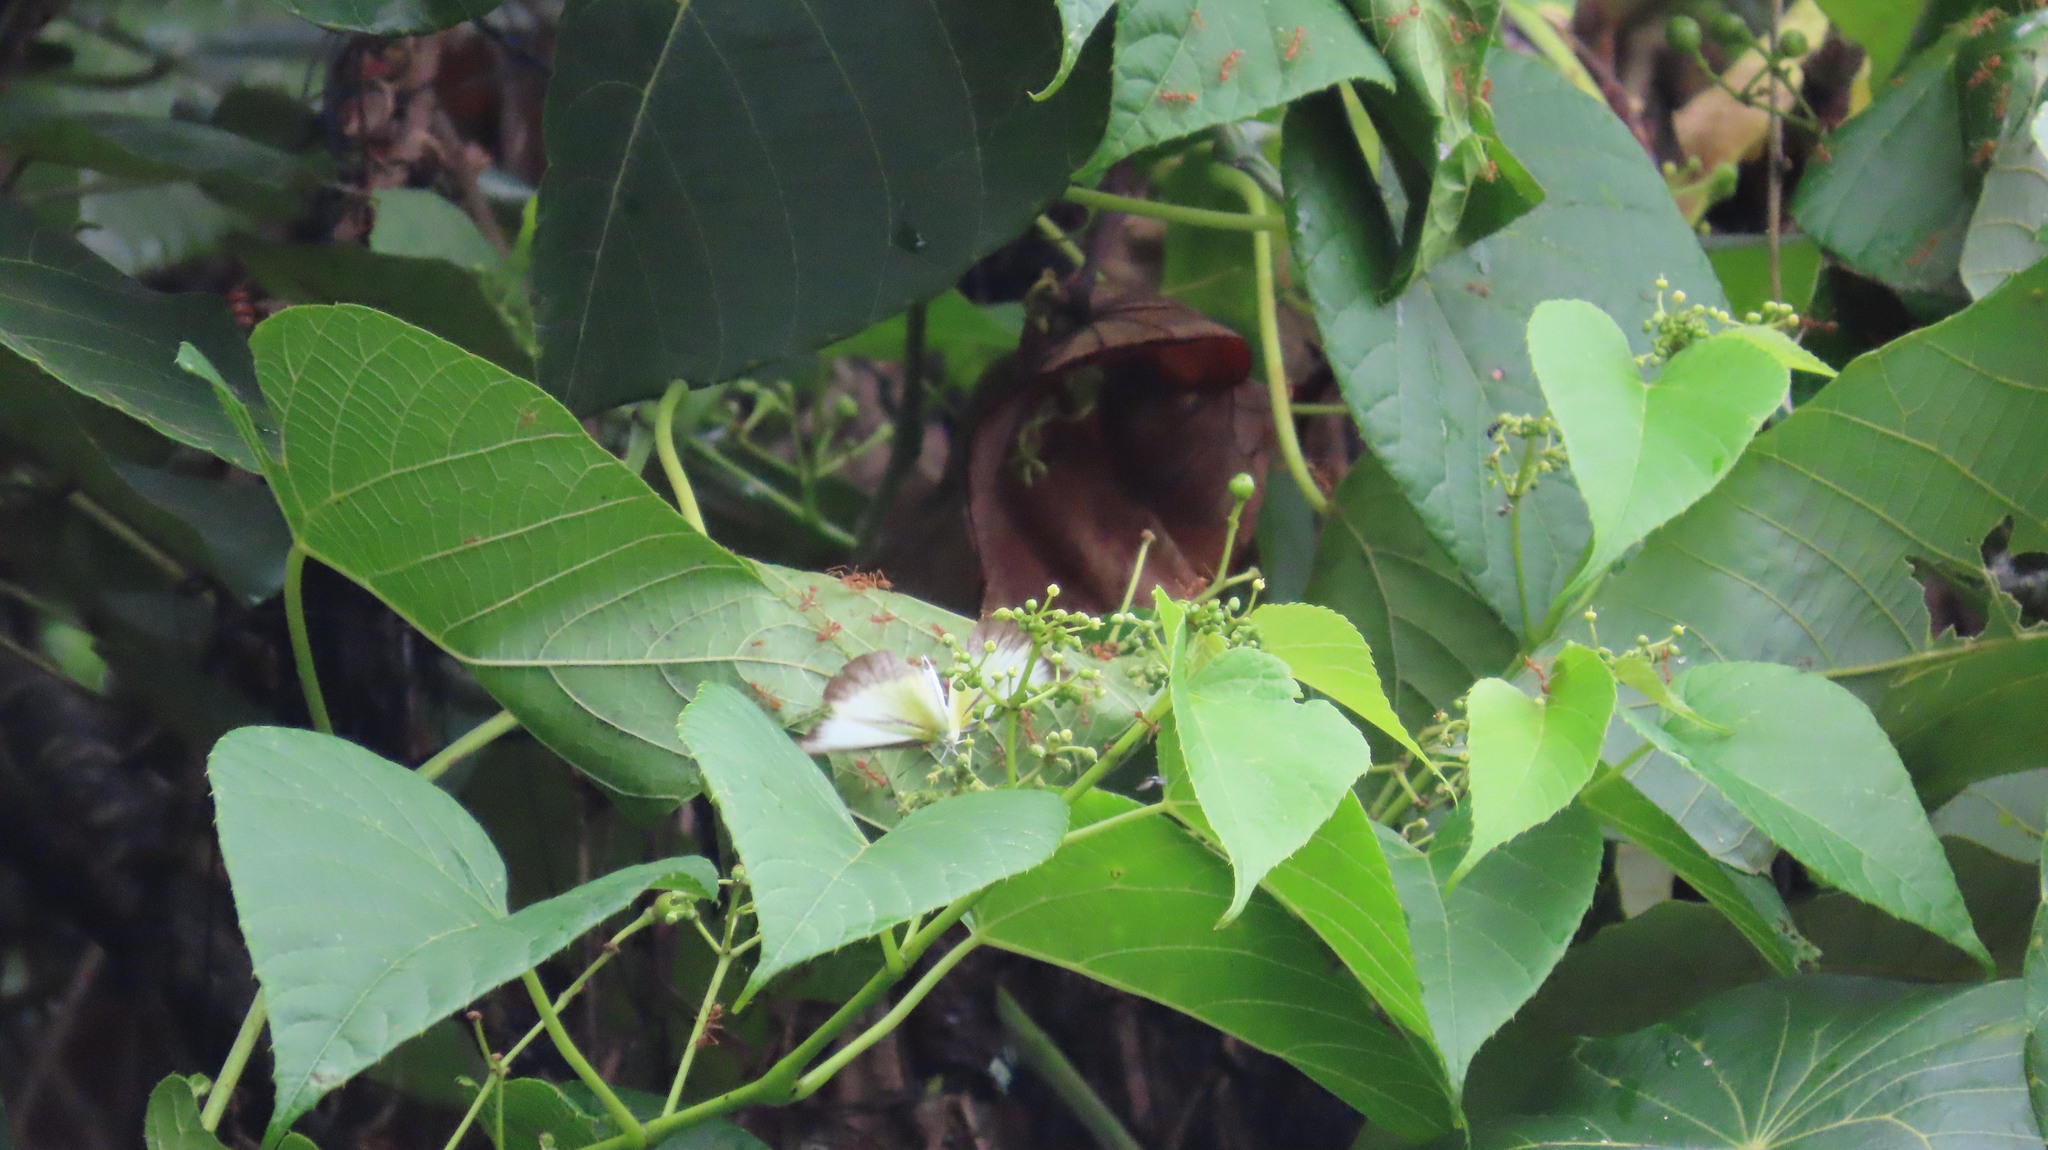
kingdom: Animalia
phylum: Arthropoda
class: Insecta
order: Hymenoptera
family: Formicidae
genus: Oecophylla
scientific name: Oecophylla smaragdina
